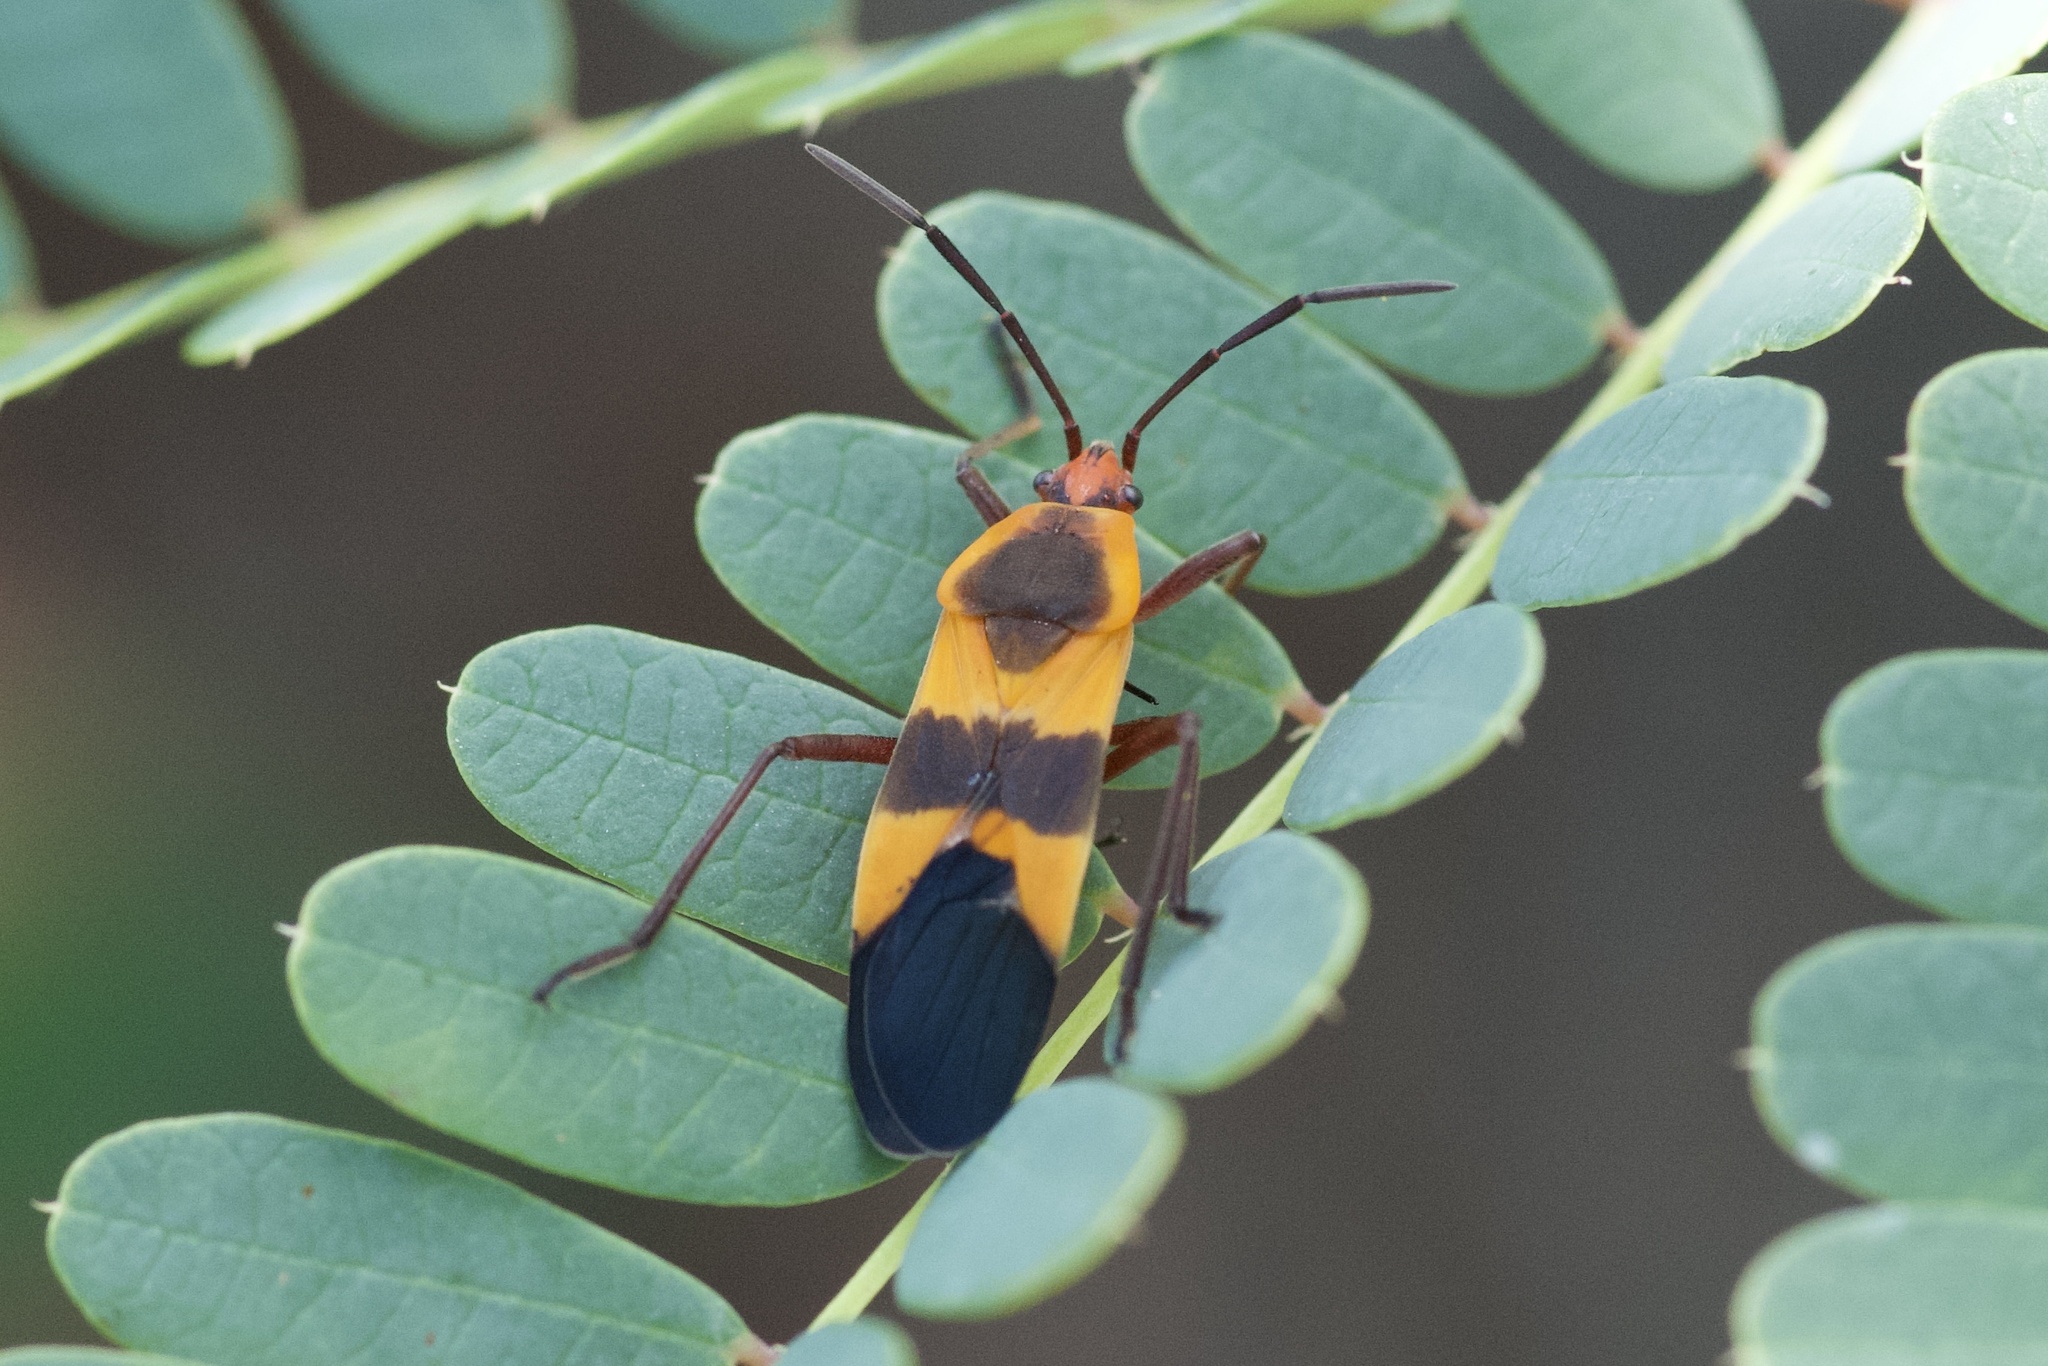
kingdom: Animalia
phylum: Arthropoda
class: Insecta
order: Hemiptera
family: Lygaeidae
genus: Oncopeltus
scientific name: Oncopeltus fasciatus
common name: Large milkweed bug
